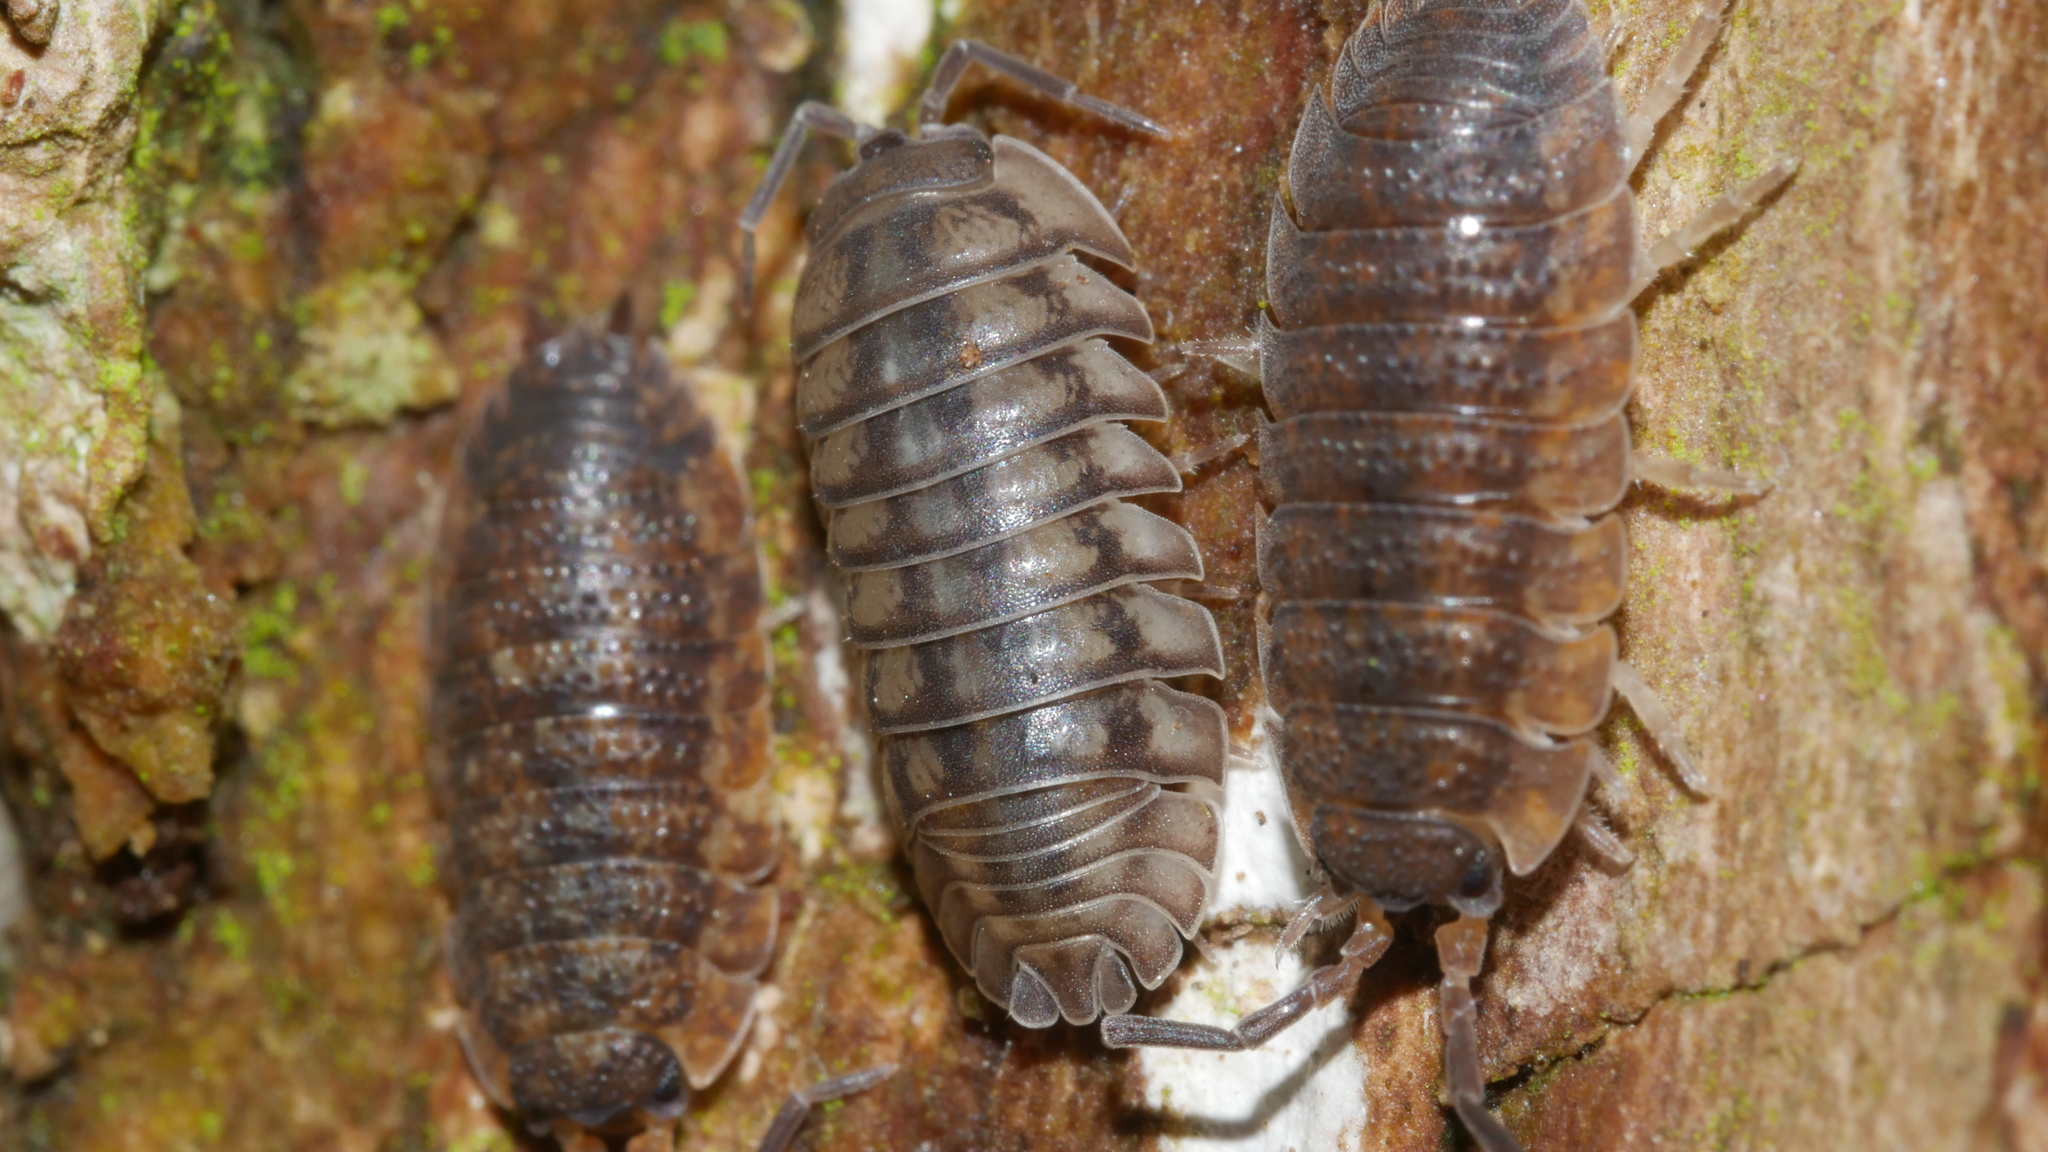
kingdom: Animalia
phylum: Arthropoda
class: Malacostraca
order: Isopoda
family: Armadillidiidae
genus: Armadillidium
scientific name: Armadillidium nasatum
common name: Isopod
